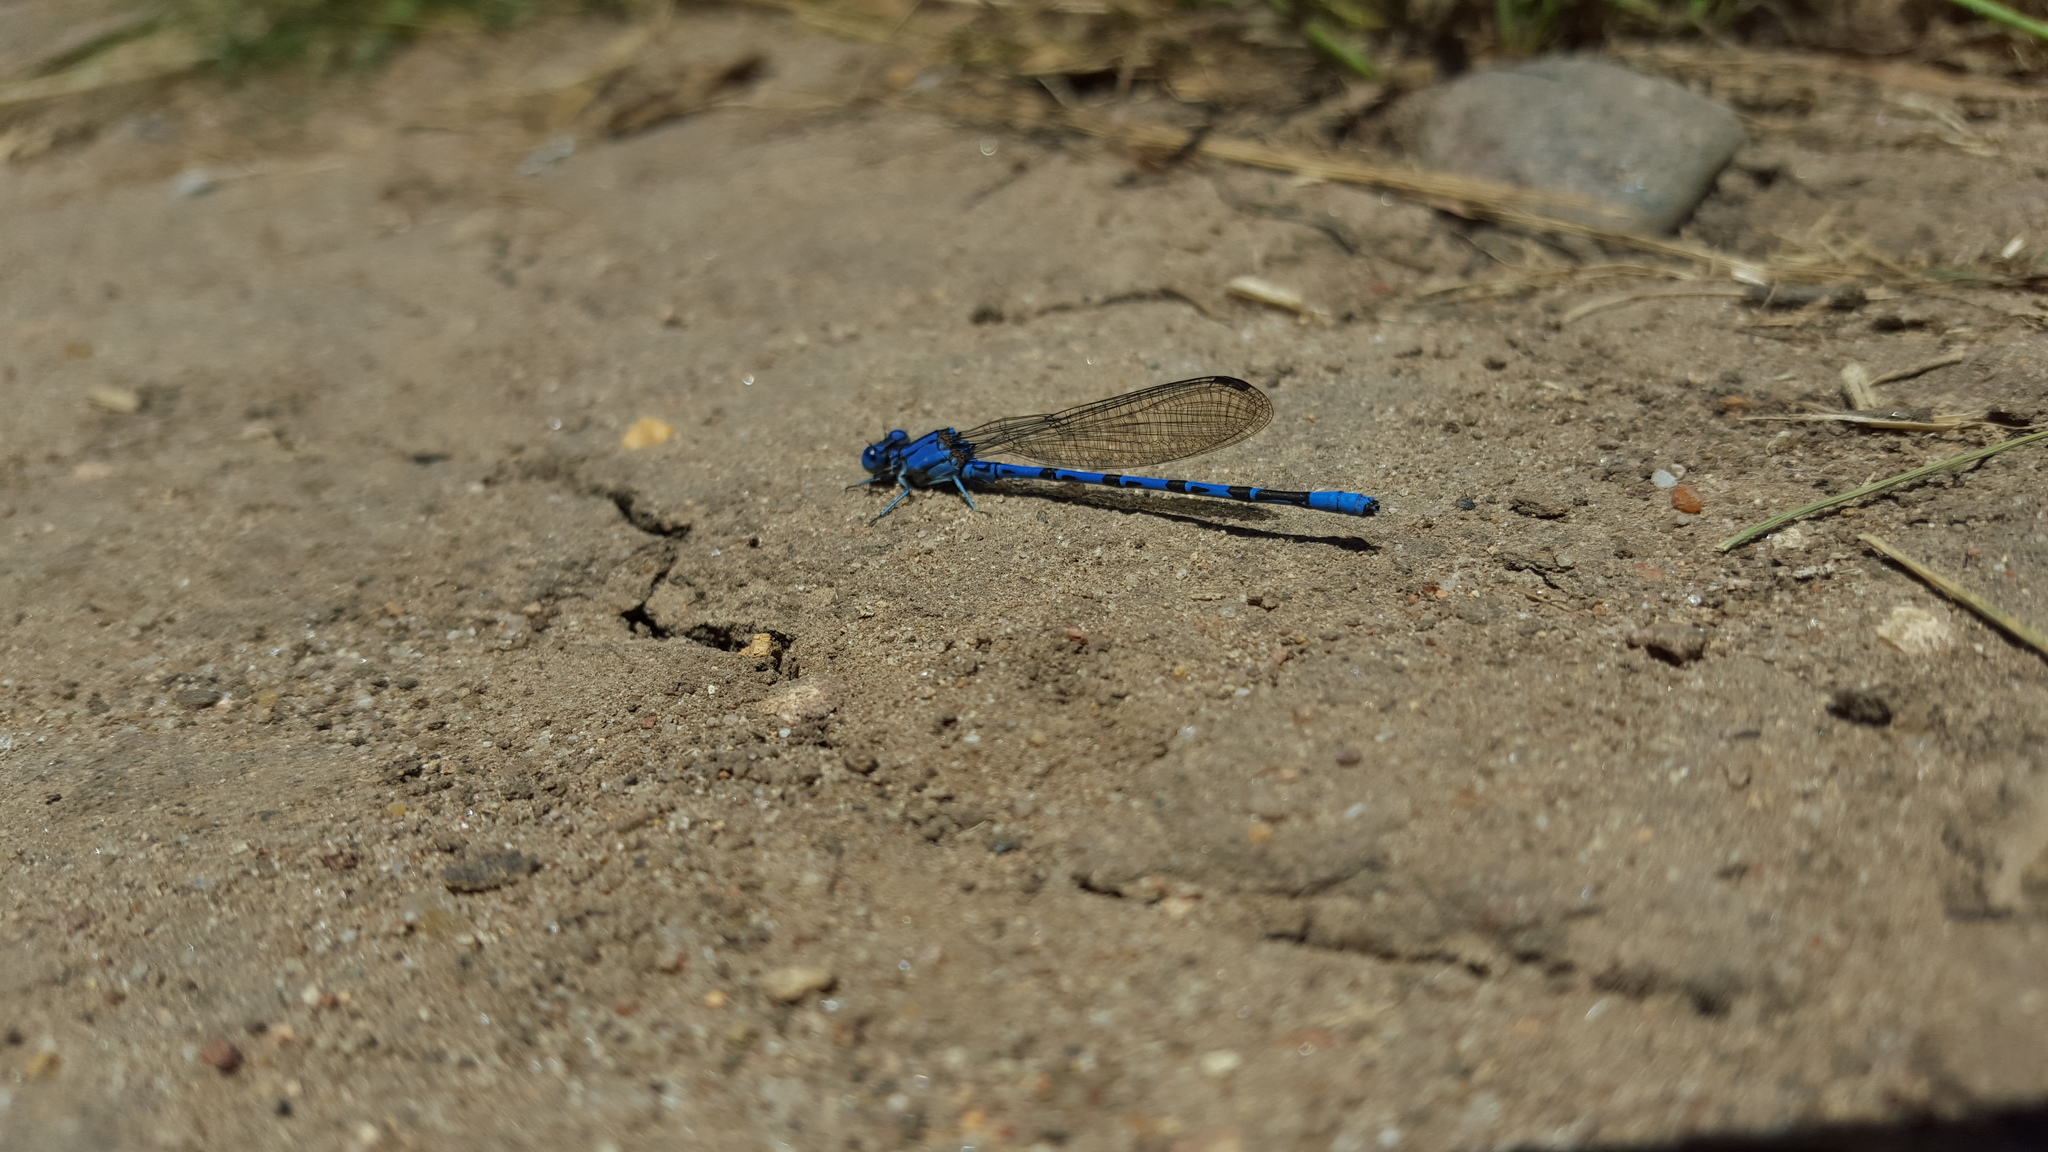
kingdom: Animalia
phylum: Arthropoda
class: Insecta
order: Odonata
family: Coenagrionidae
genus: Argia
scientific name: Argia vivida
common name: Vivid dancer
